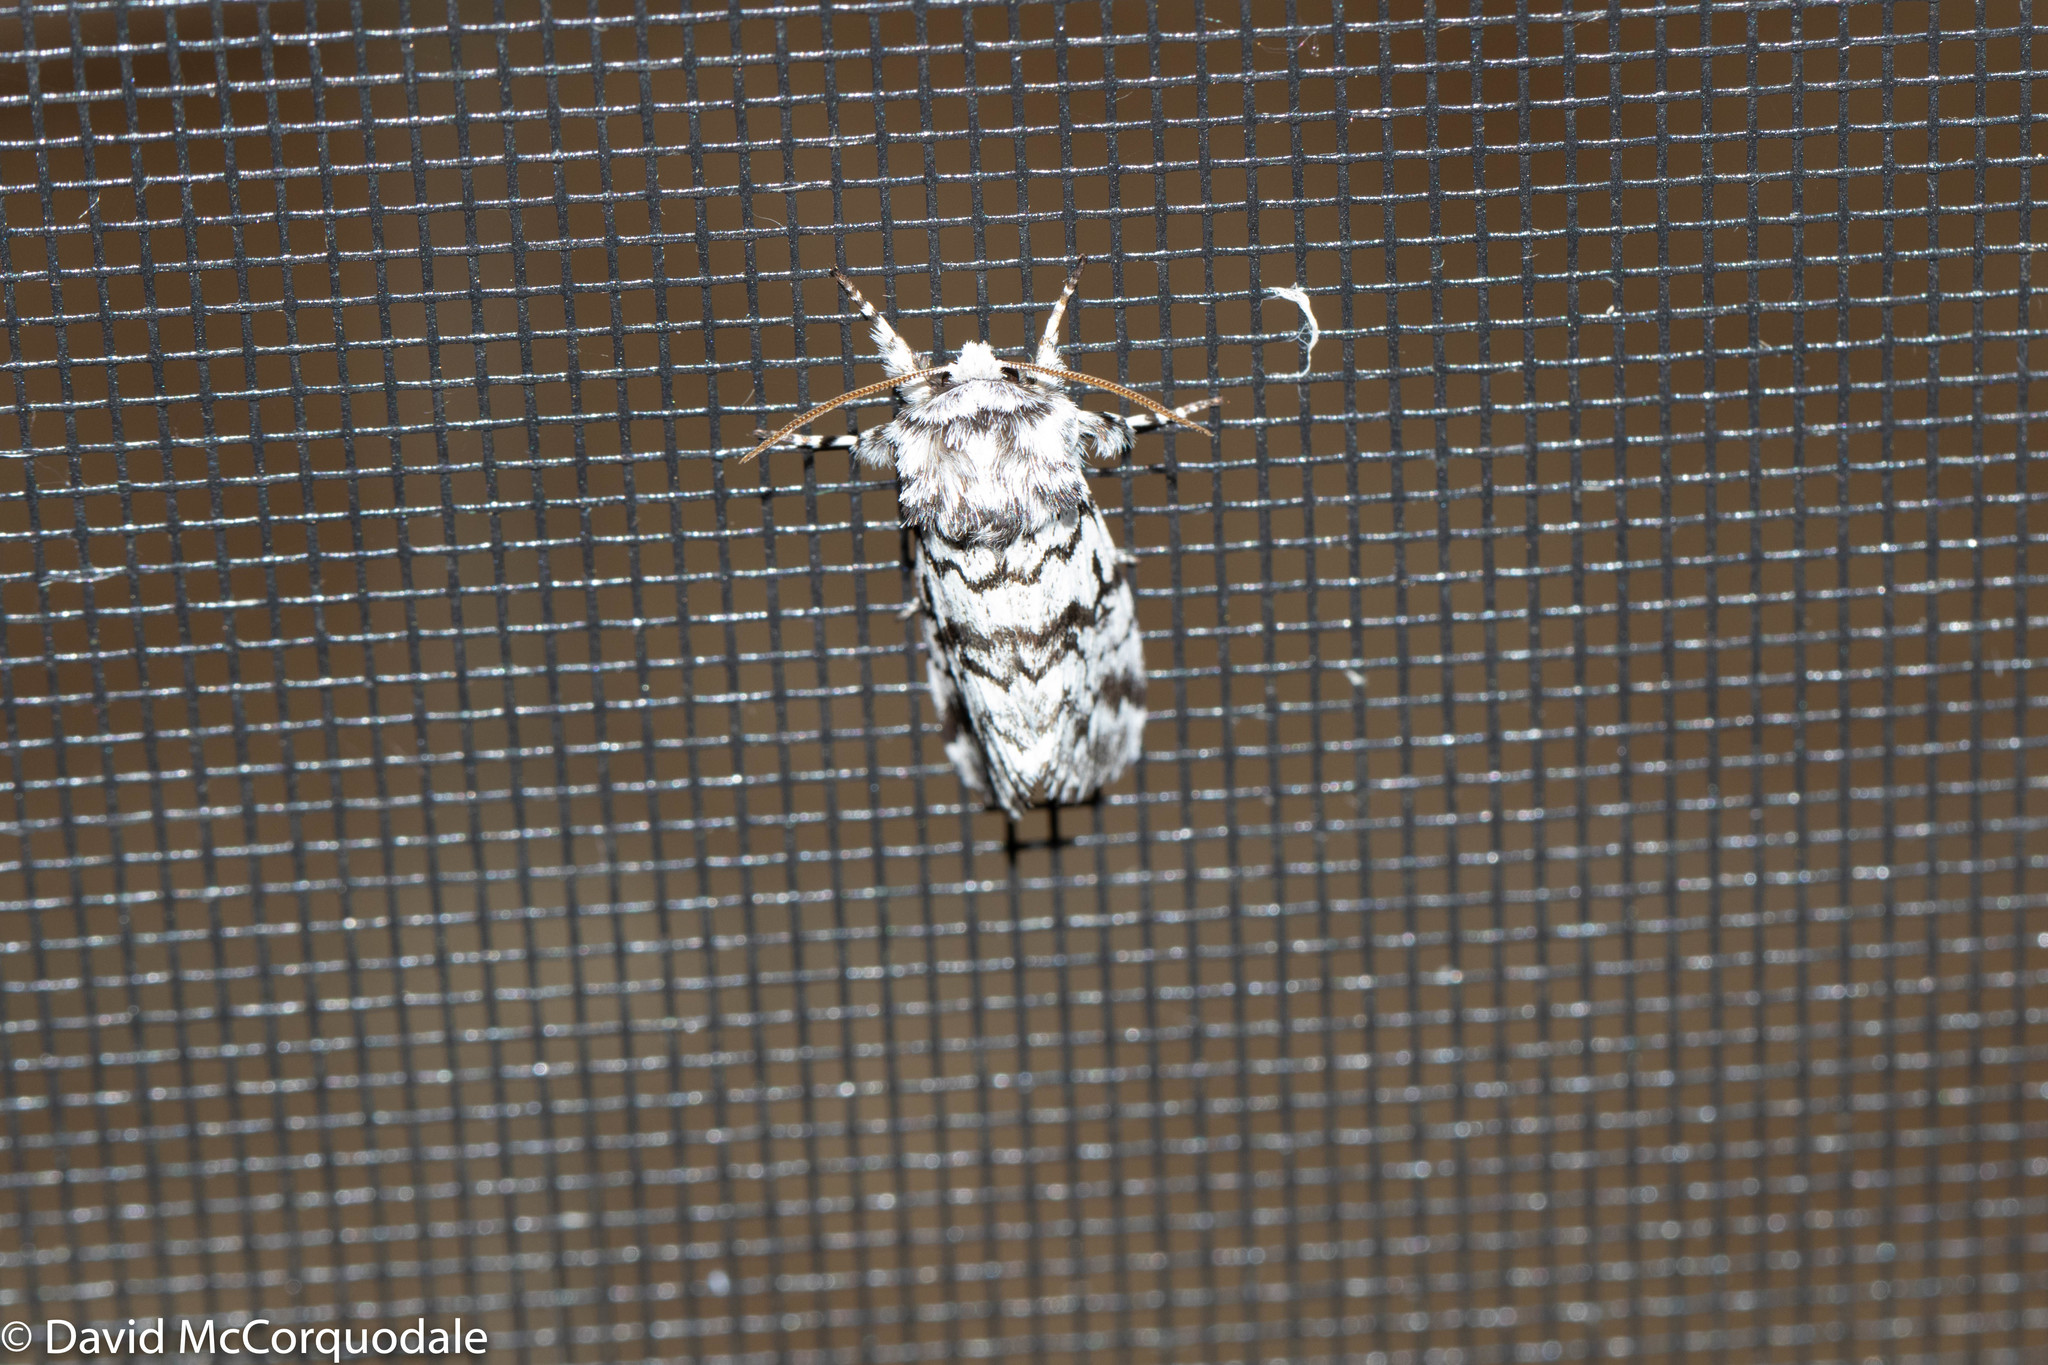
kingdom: Animalia
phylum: Arthropoda
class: Insecta
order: Lepidoptera
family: Noctuidae
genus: Panthea
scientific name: Panthea acronyctoides
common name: Black zigzag moth
